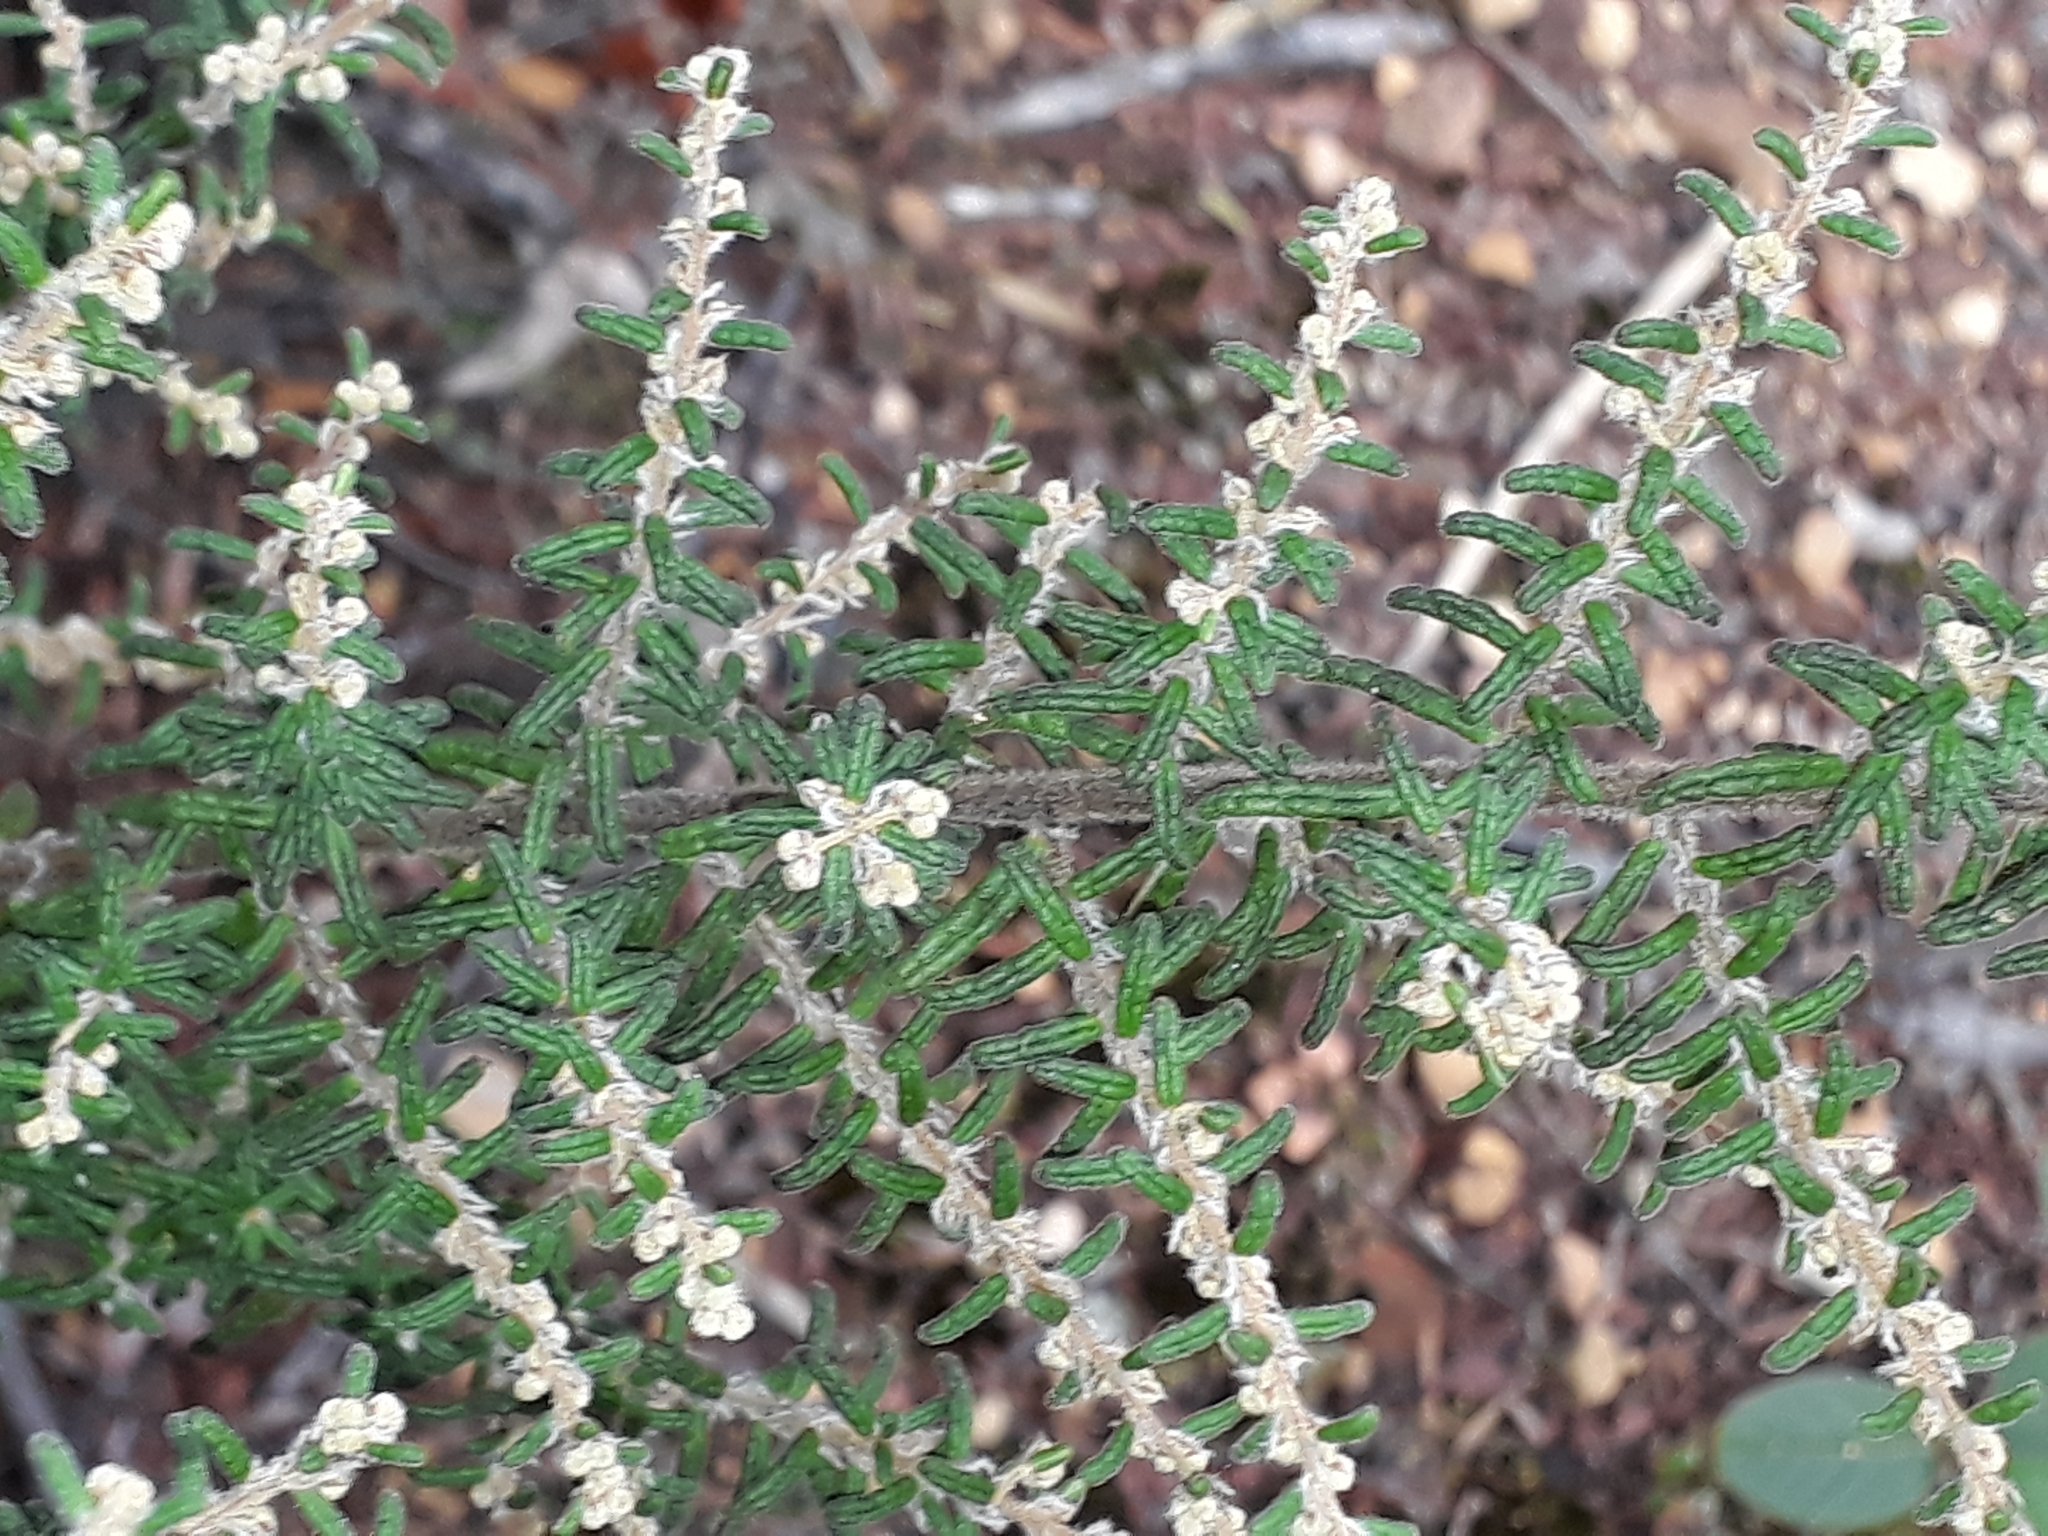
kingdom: Plantae
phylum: Tracheophyta
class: Magnoliopsida
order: Rosales
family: Rhamnaceae
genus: Pomaderris
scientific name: Pomaderris amoena
